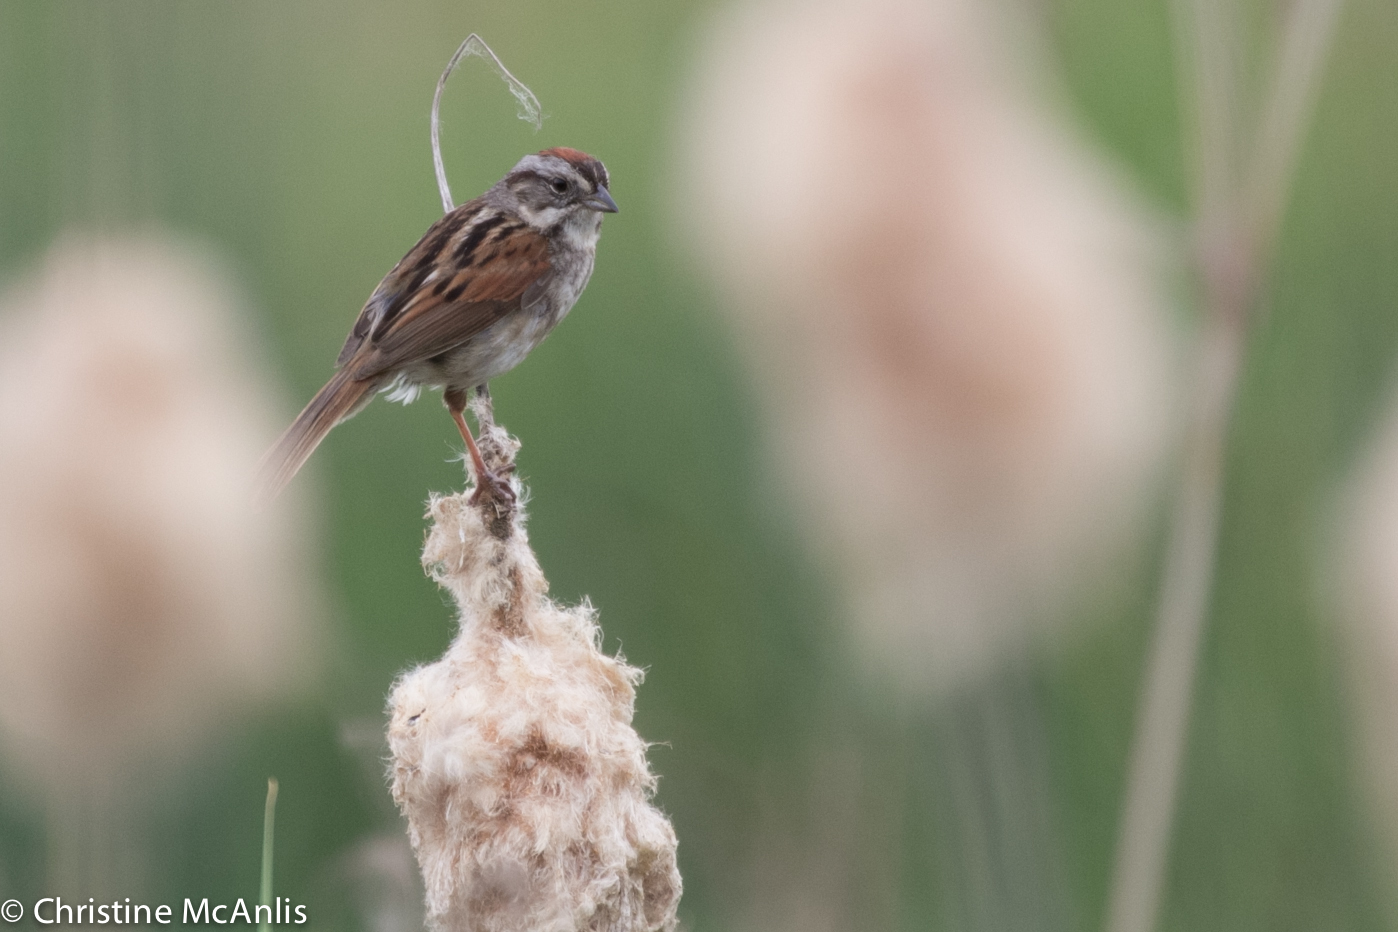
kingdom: Animalia
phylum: Chordata
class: Aves
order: Passeriformes
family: Passerellidae
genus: Melospiza
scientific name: Melospiza georgiana
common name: Swamp sparrow
